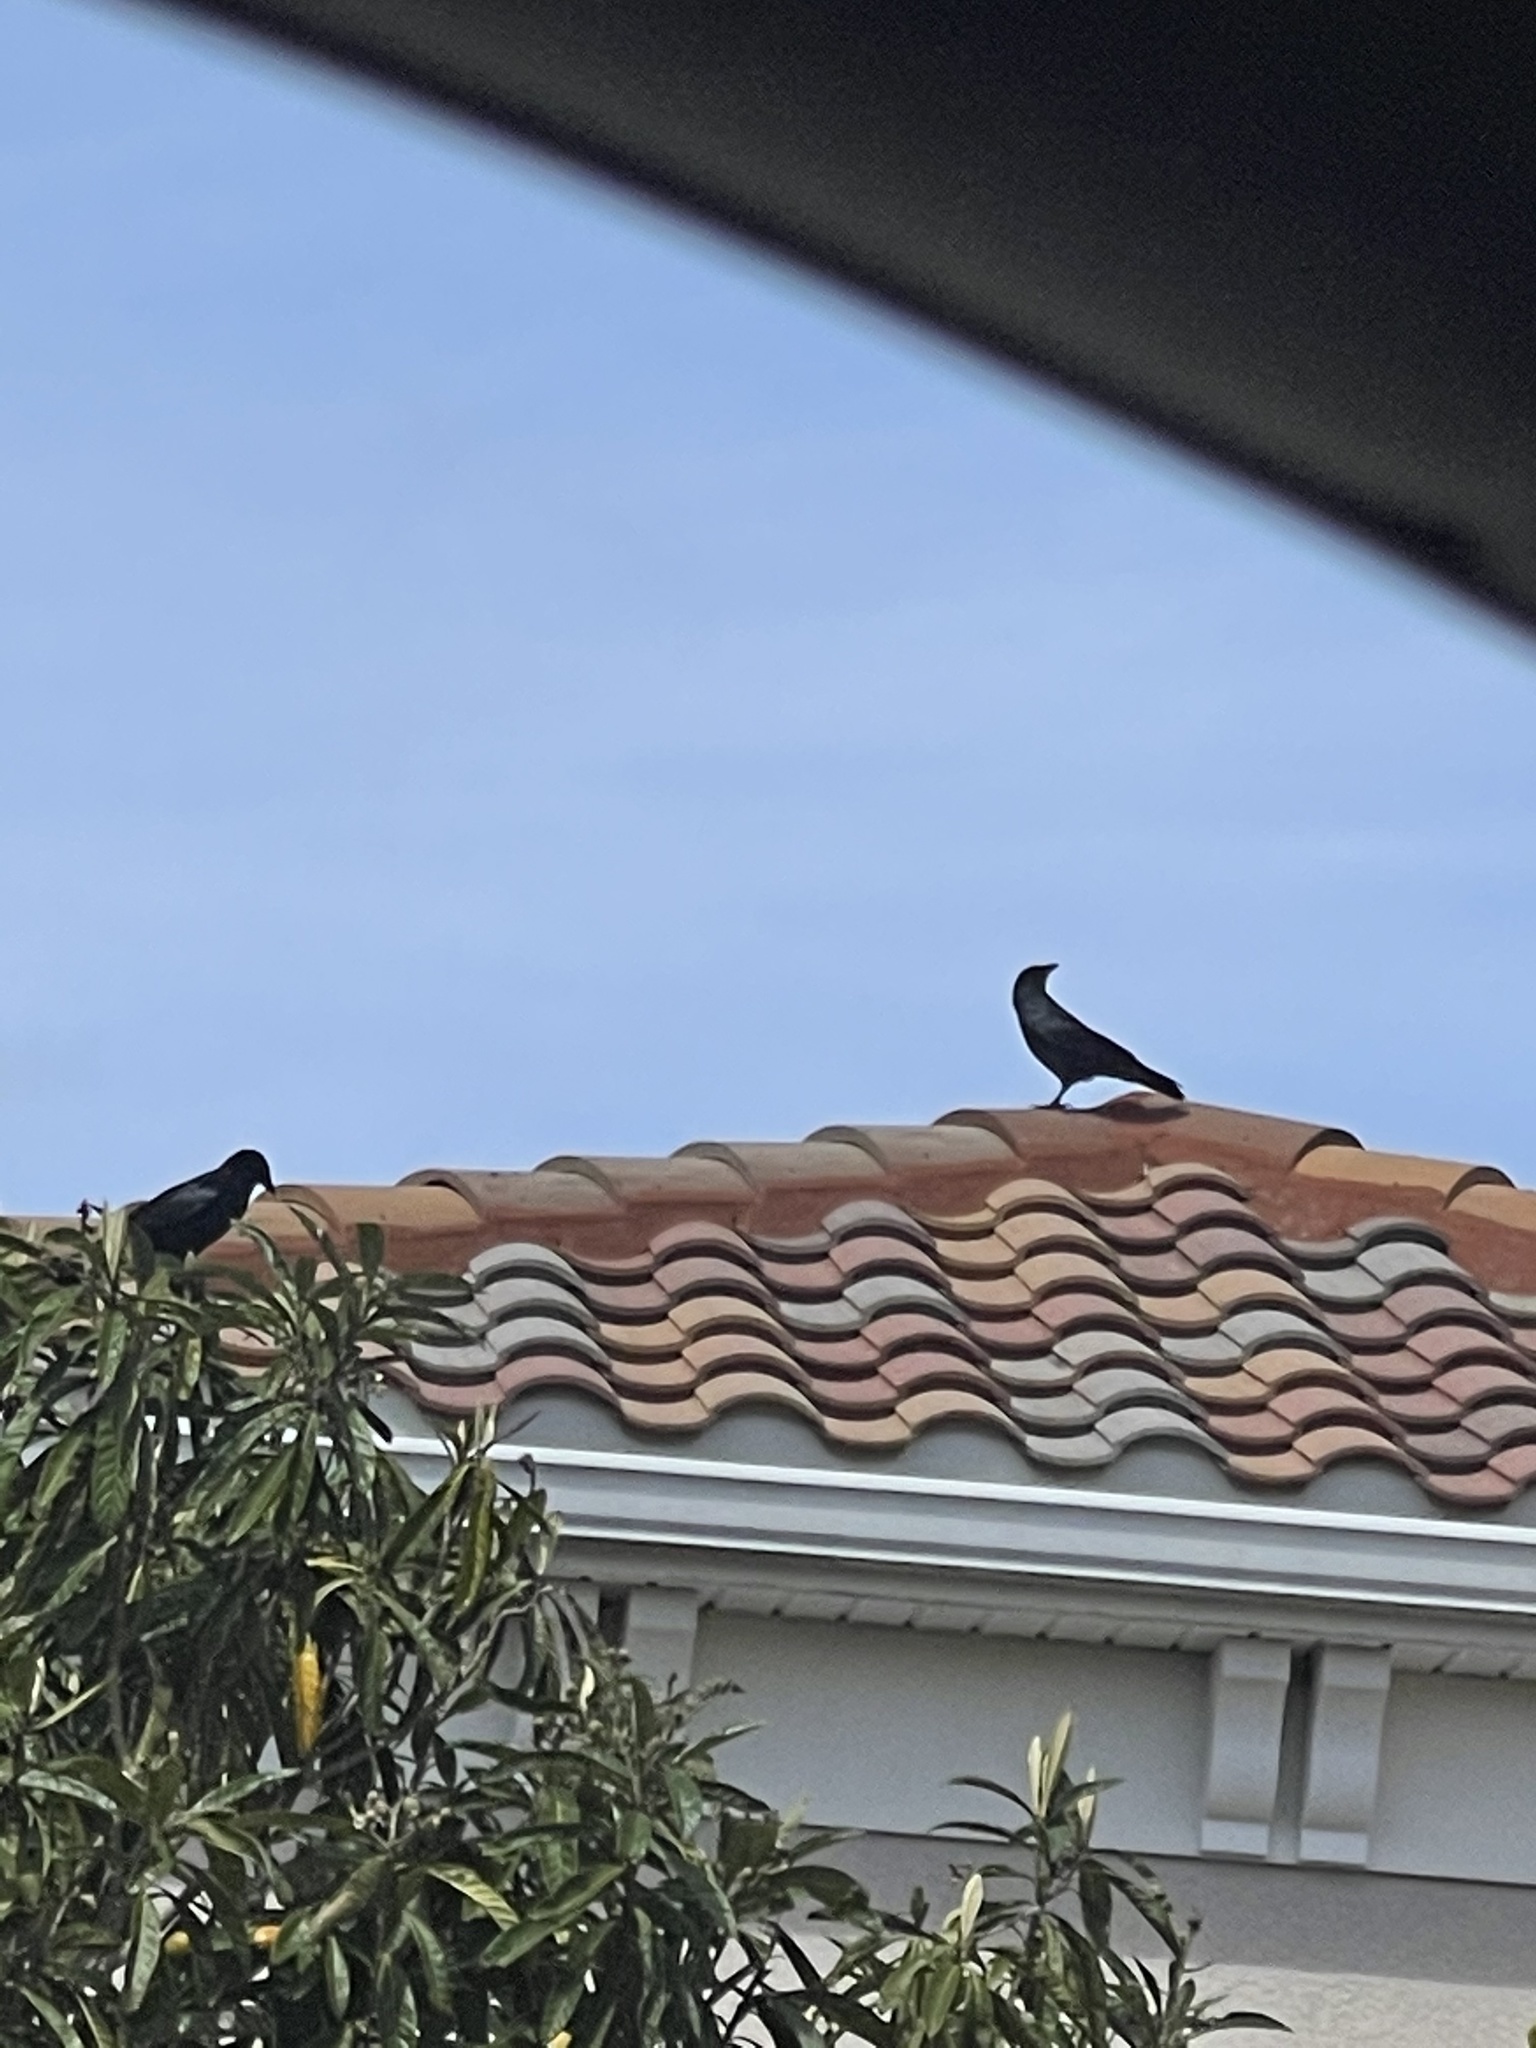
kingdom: Animalia
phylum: Chordata
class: Aves
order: Passeriformes
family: Corvidae
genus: Corvus
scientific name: Corvus
